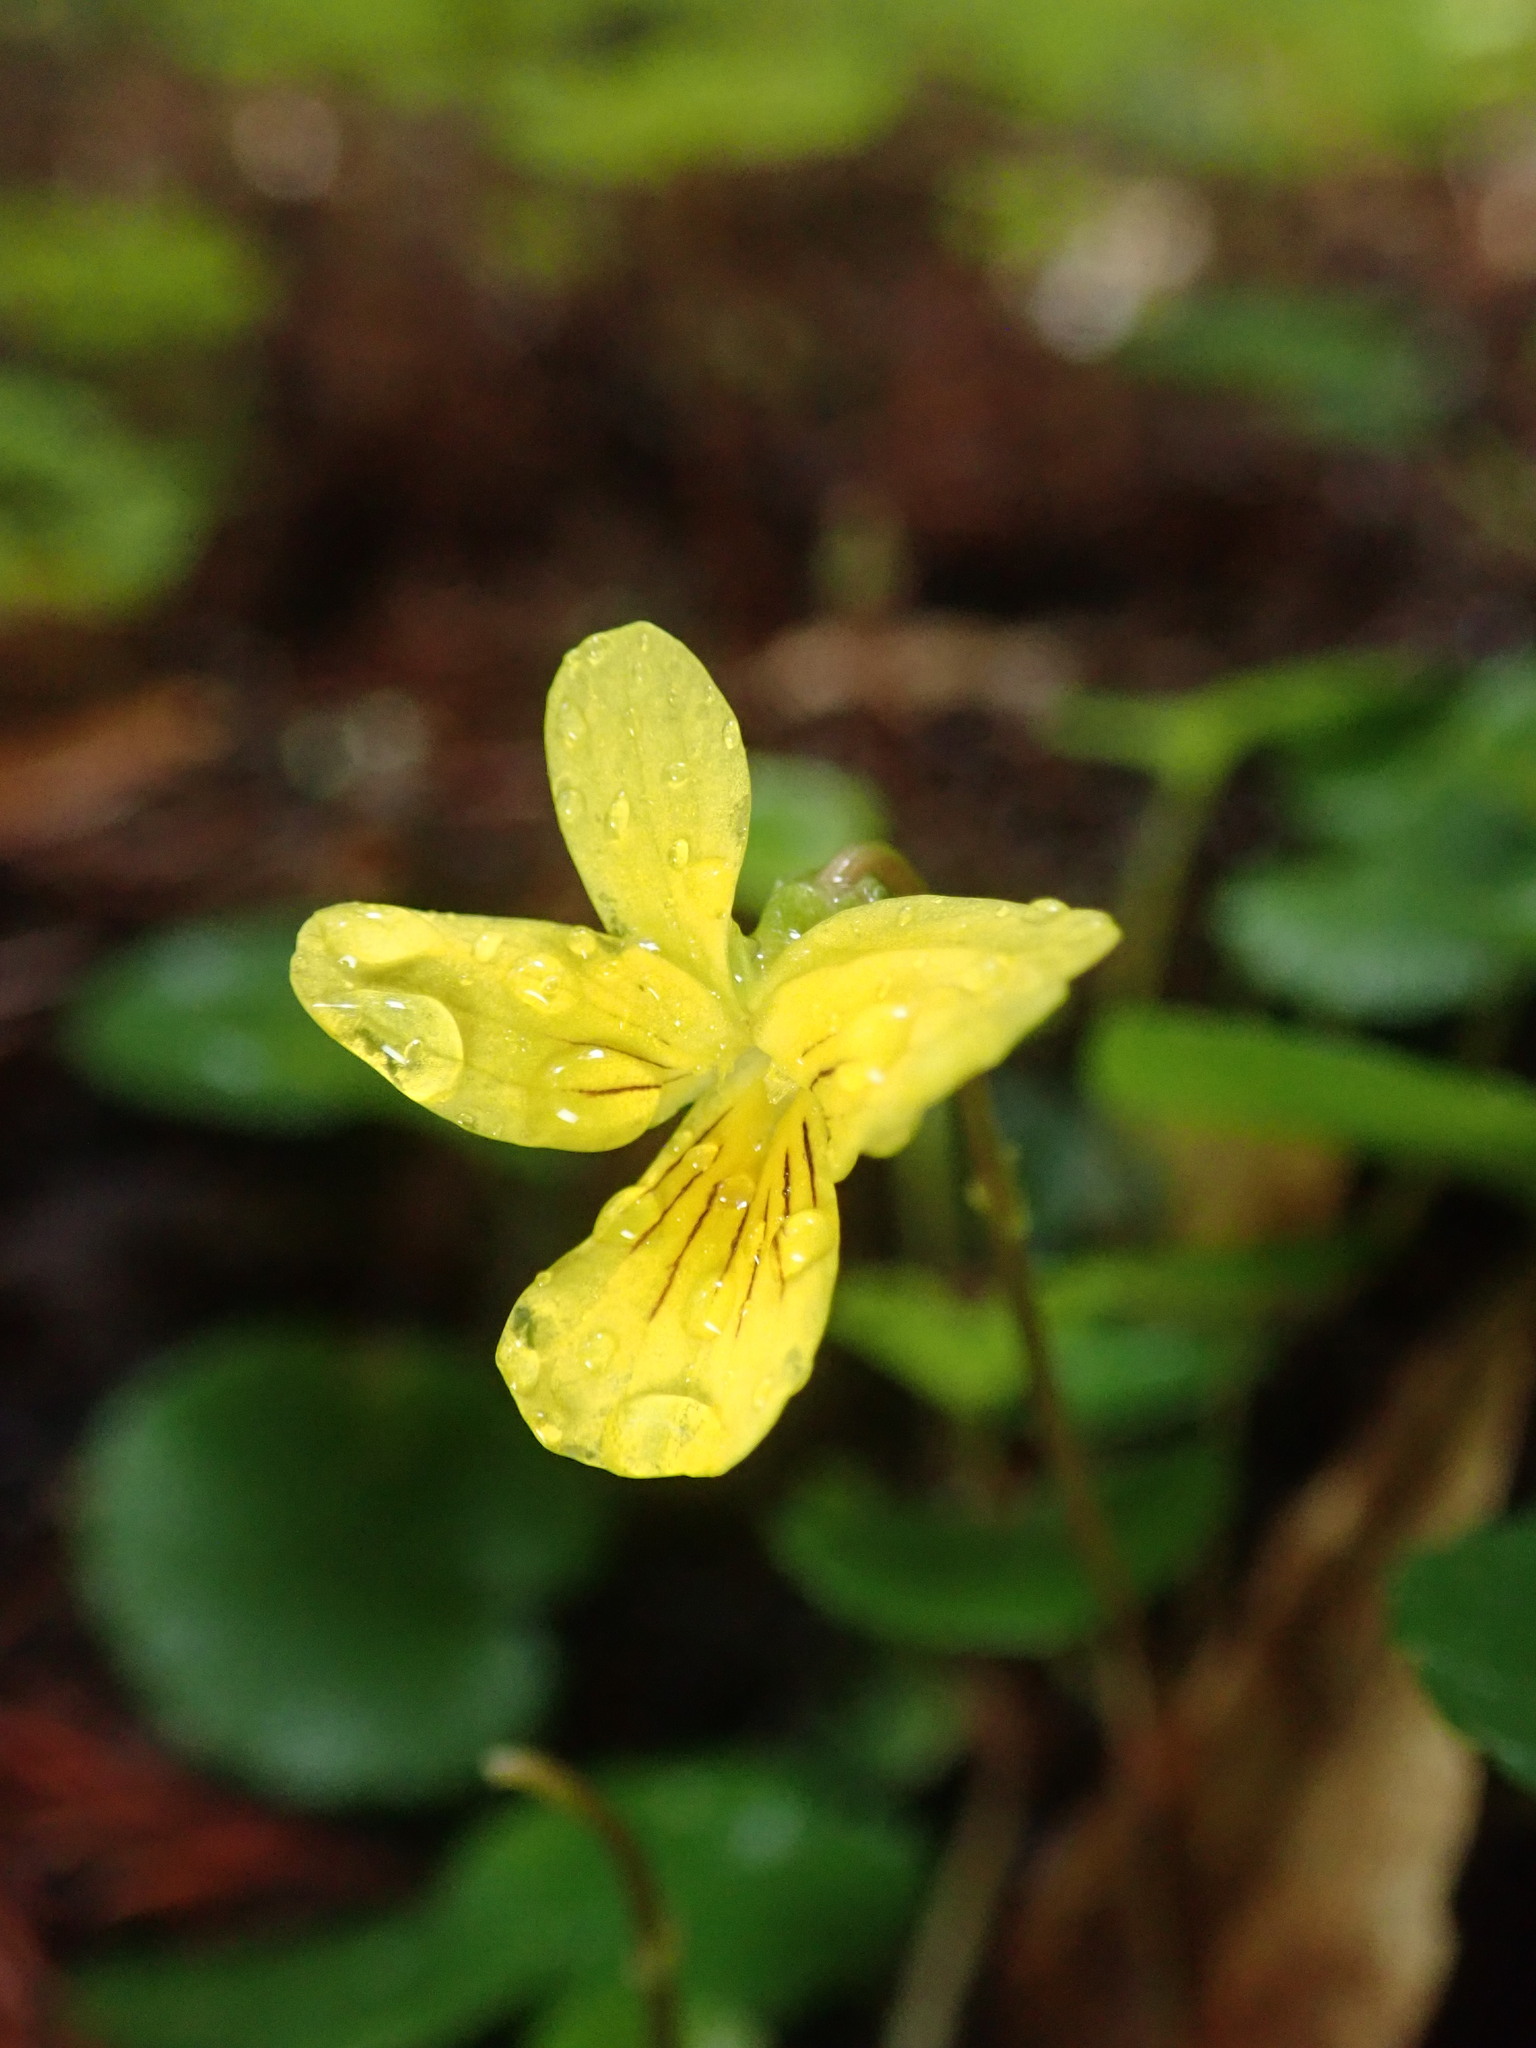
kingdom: Plantae
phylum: Tracheophyta
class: Magnoliopsida
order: Malpighiales
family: Violaceae
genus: Viola
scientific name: Viola sempervirens
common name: Evergreen violet
